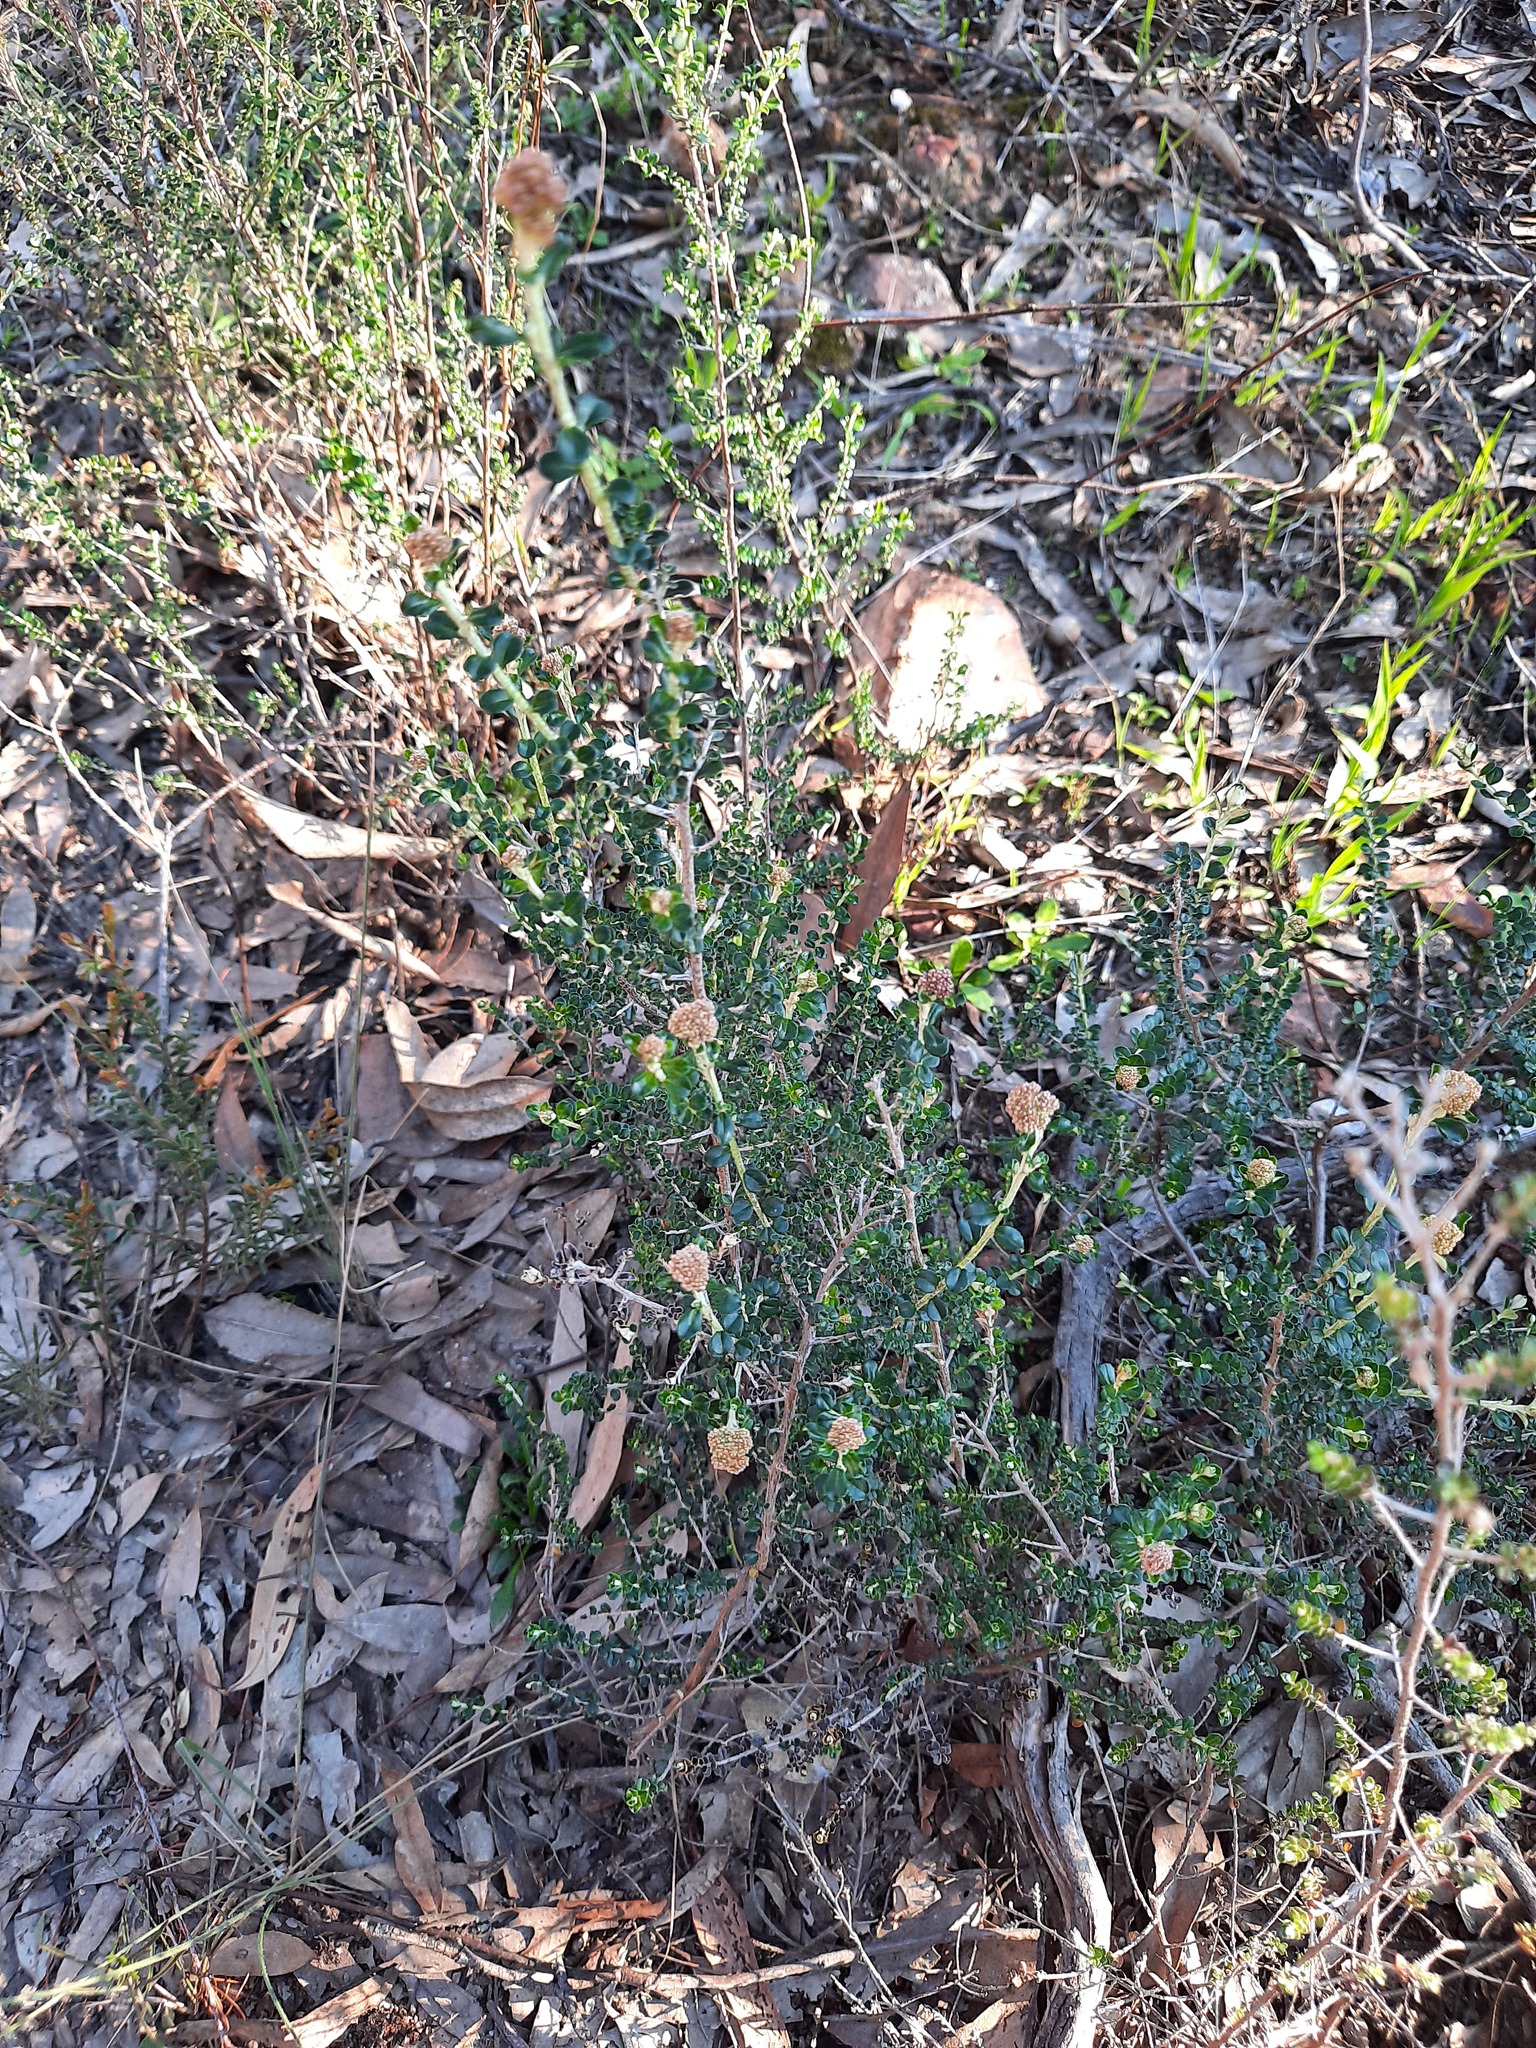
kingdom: Plantae
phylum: Tracheophyta
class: Magnoliopsida
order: Asterales
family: Asteraceae
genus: Ozothamnus
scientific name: Ozothamnus obcordatus
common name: Grey everlasting
